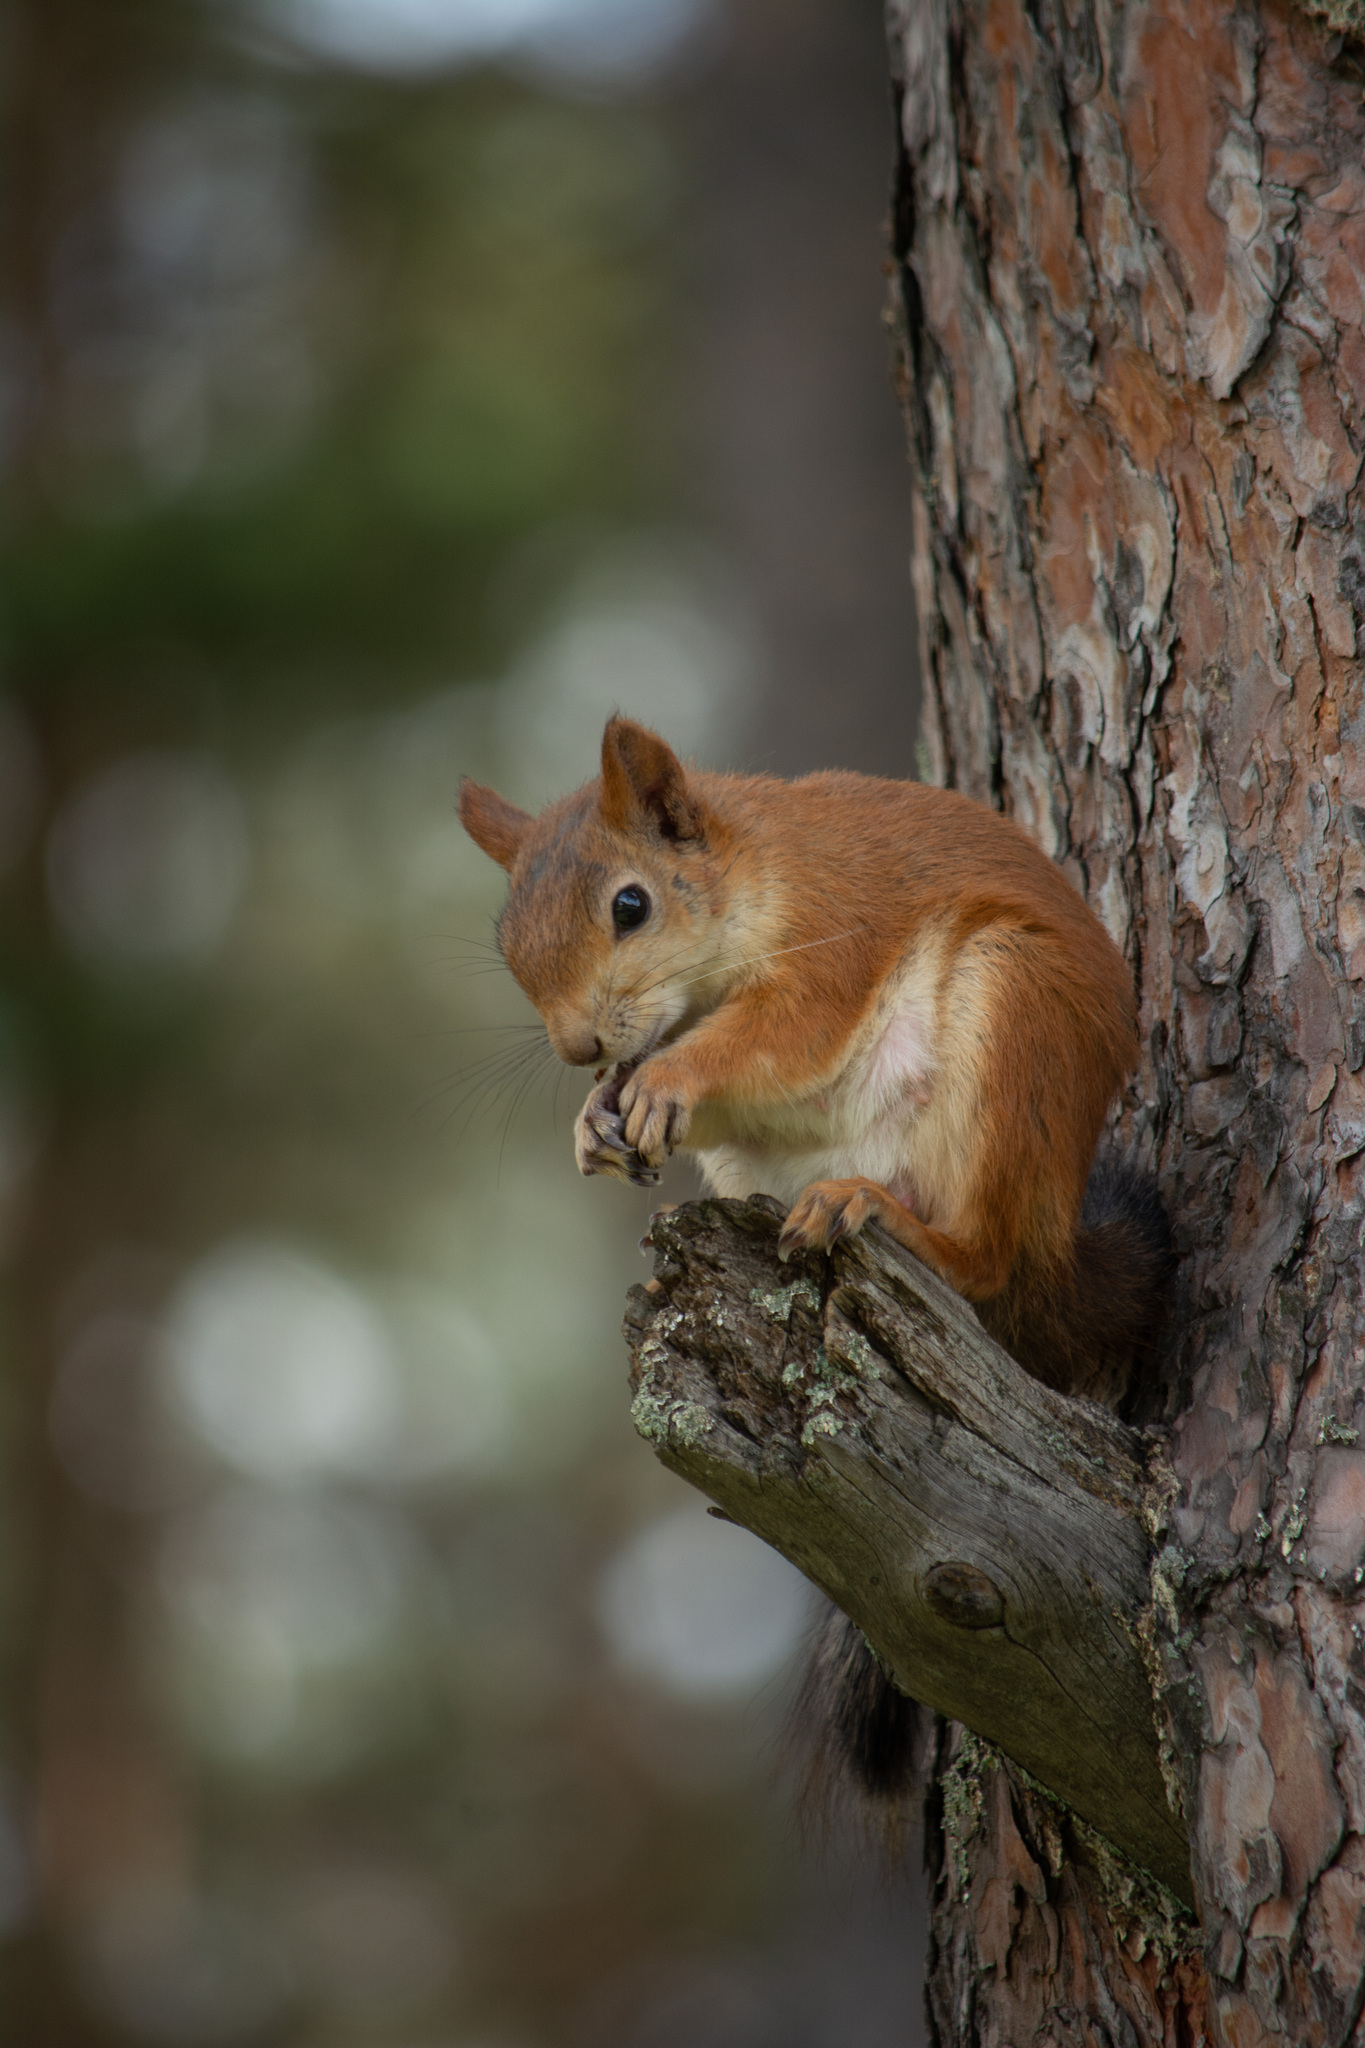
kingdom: Animalia
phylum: Chordata
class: Mammalia
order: Rodentia
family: Sciuridae
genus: Sciurus
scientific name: Sciurus vulgaris
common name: Eurasian red squirrel
